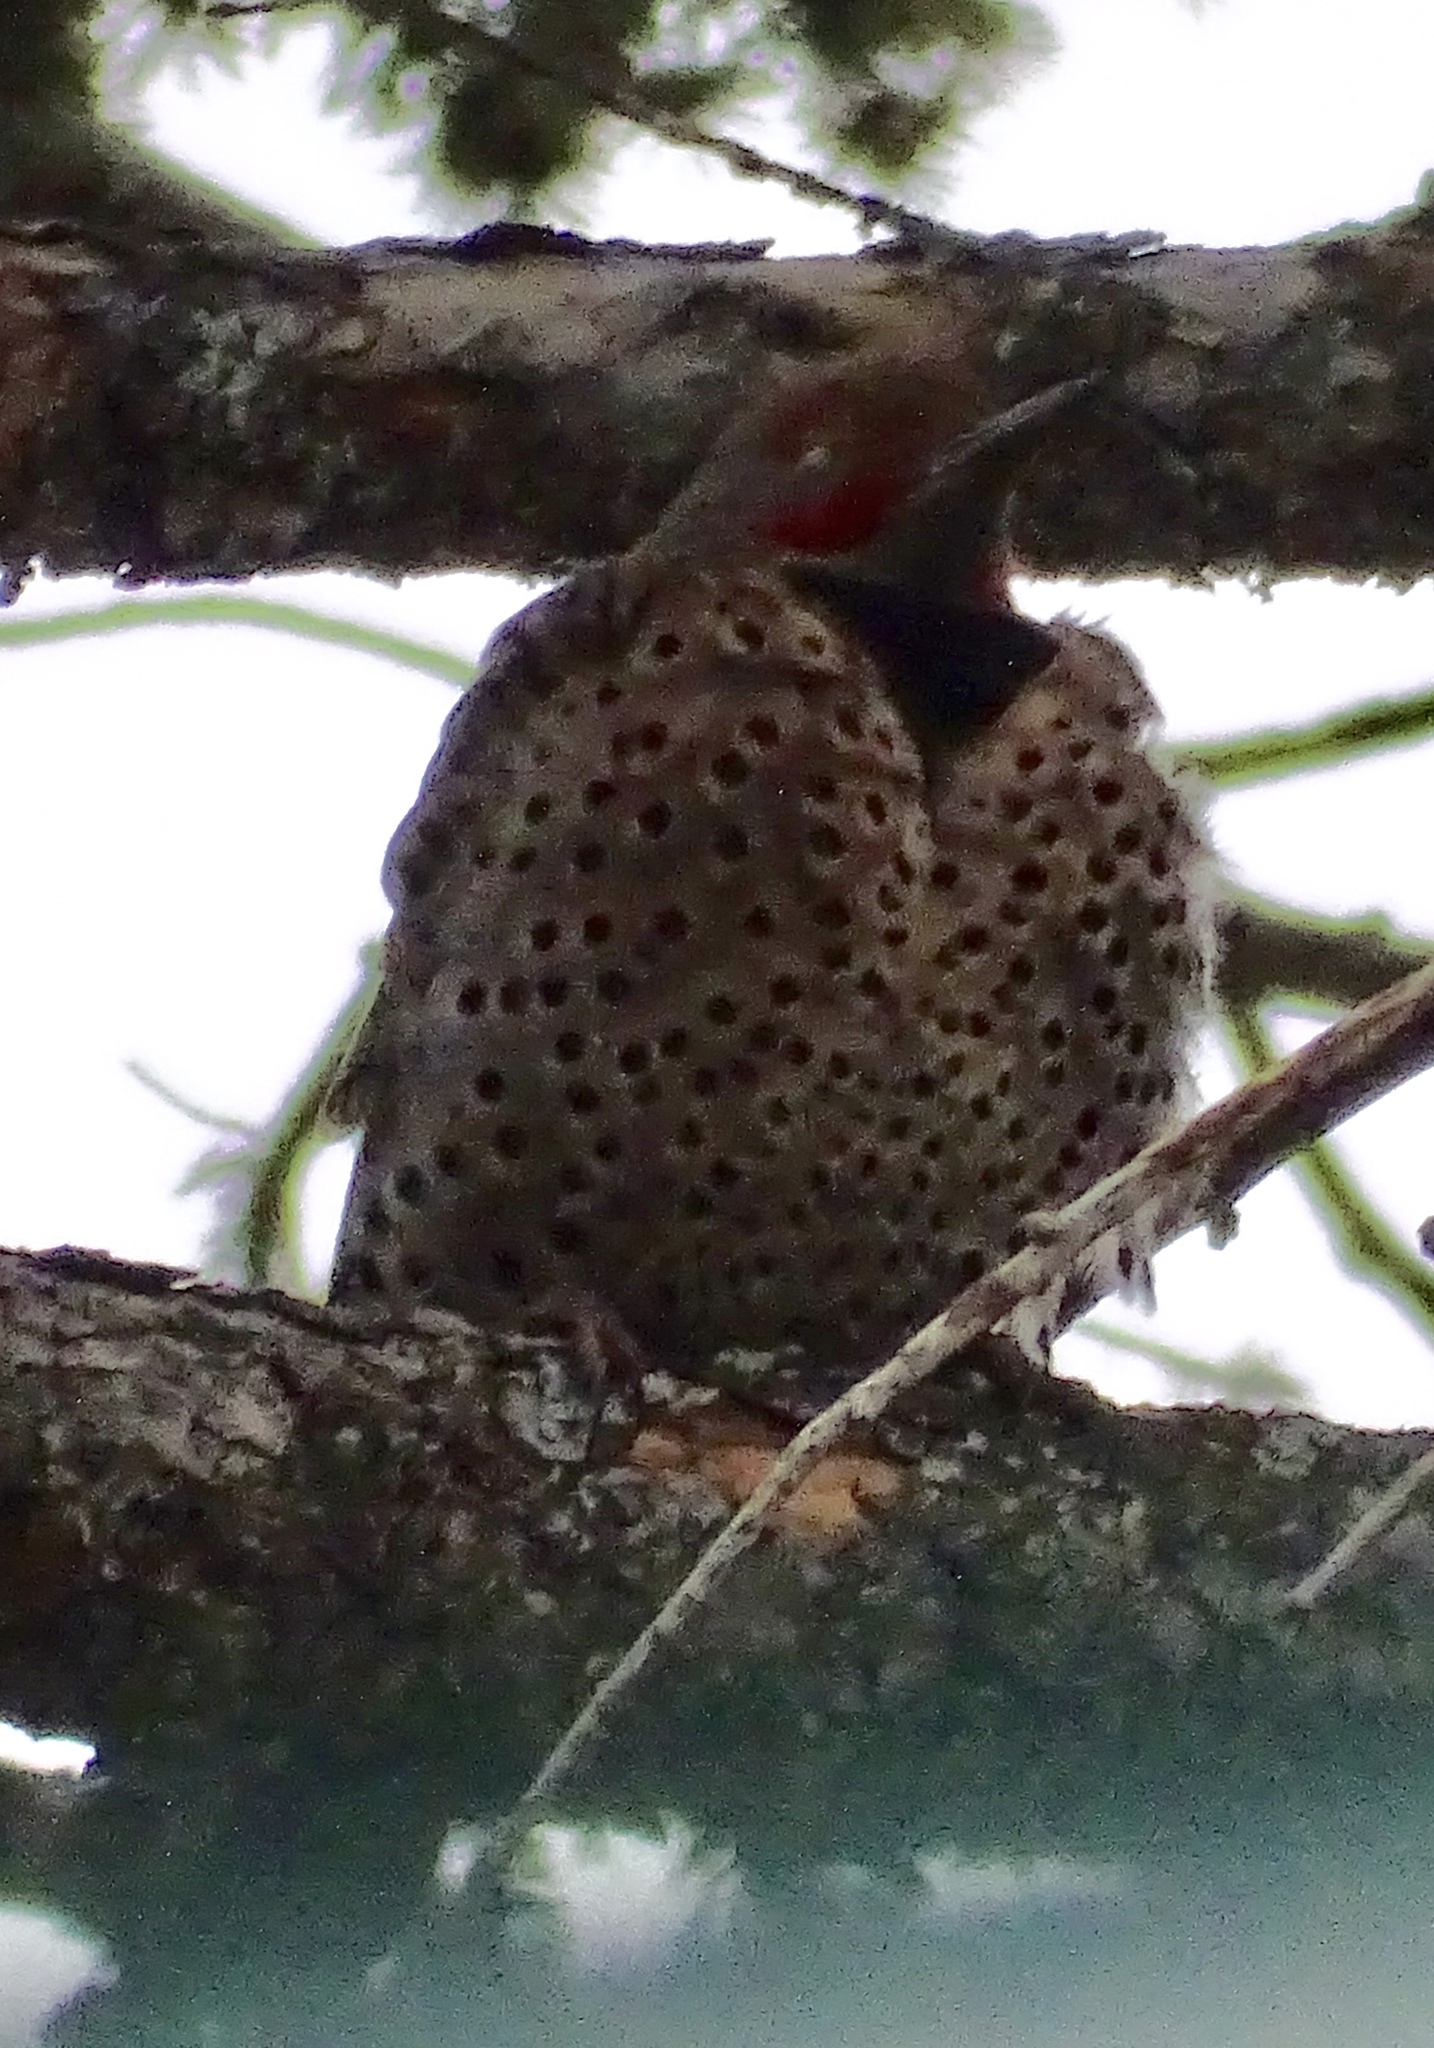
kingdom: Animalia
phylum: Chordata
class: Aves
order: Piciformes
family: Picidae
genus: Colaptes
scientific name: Colaptes auratus
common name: Northern flicker
